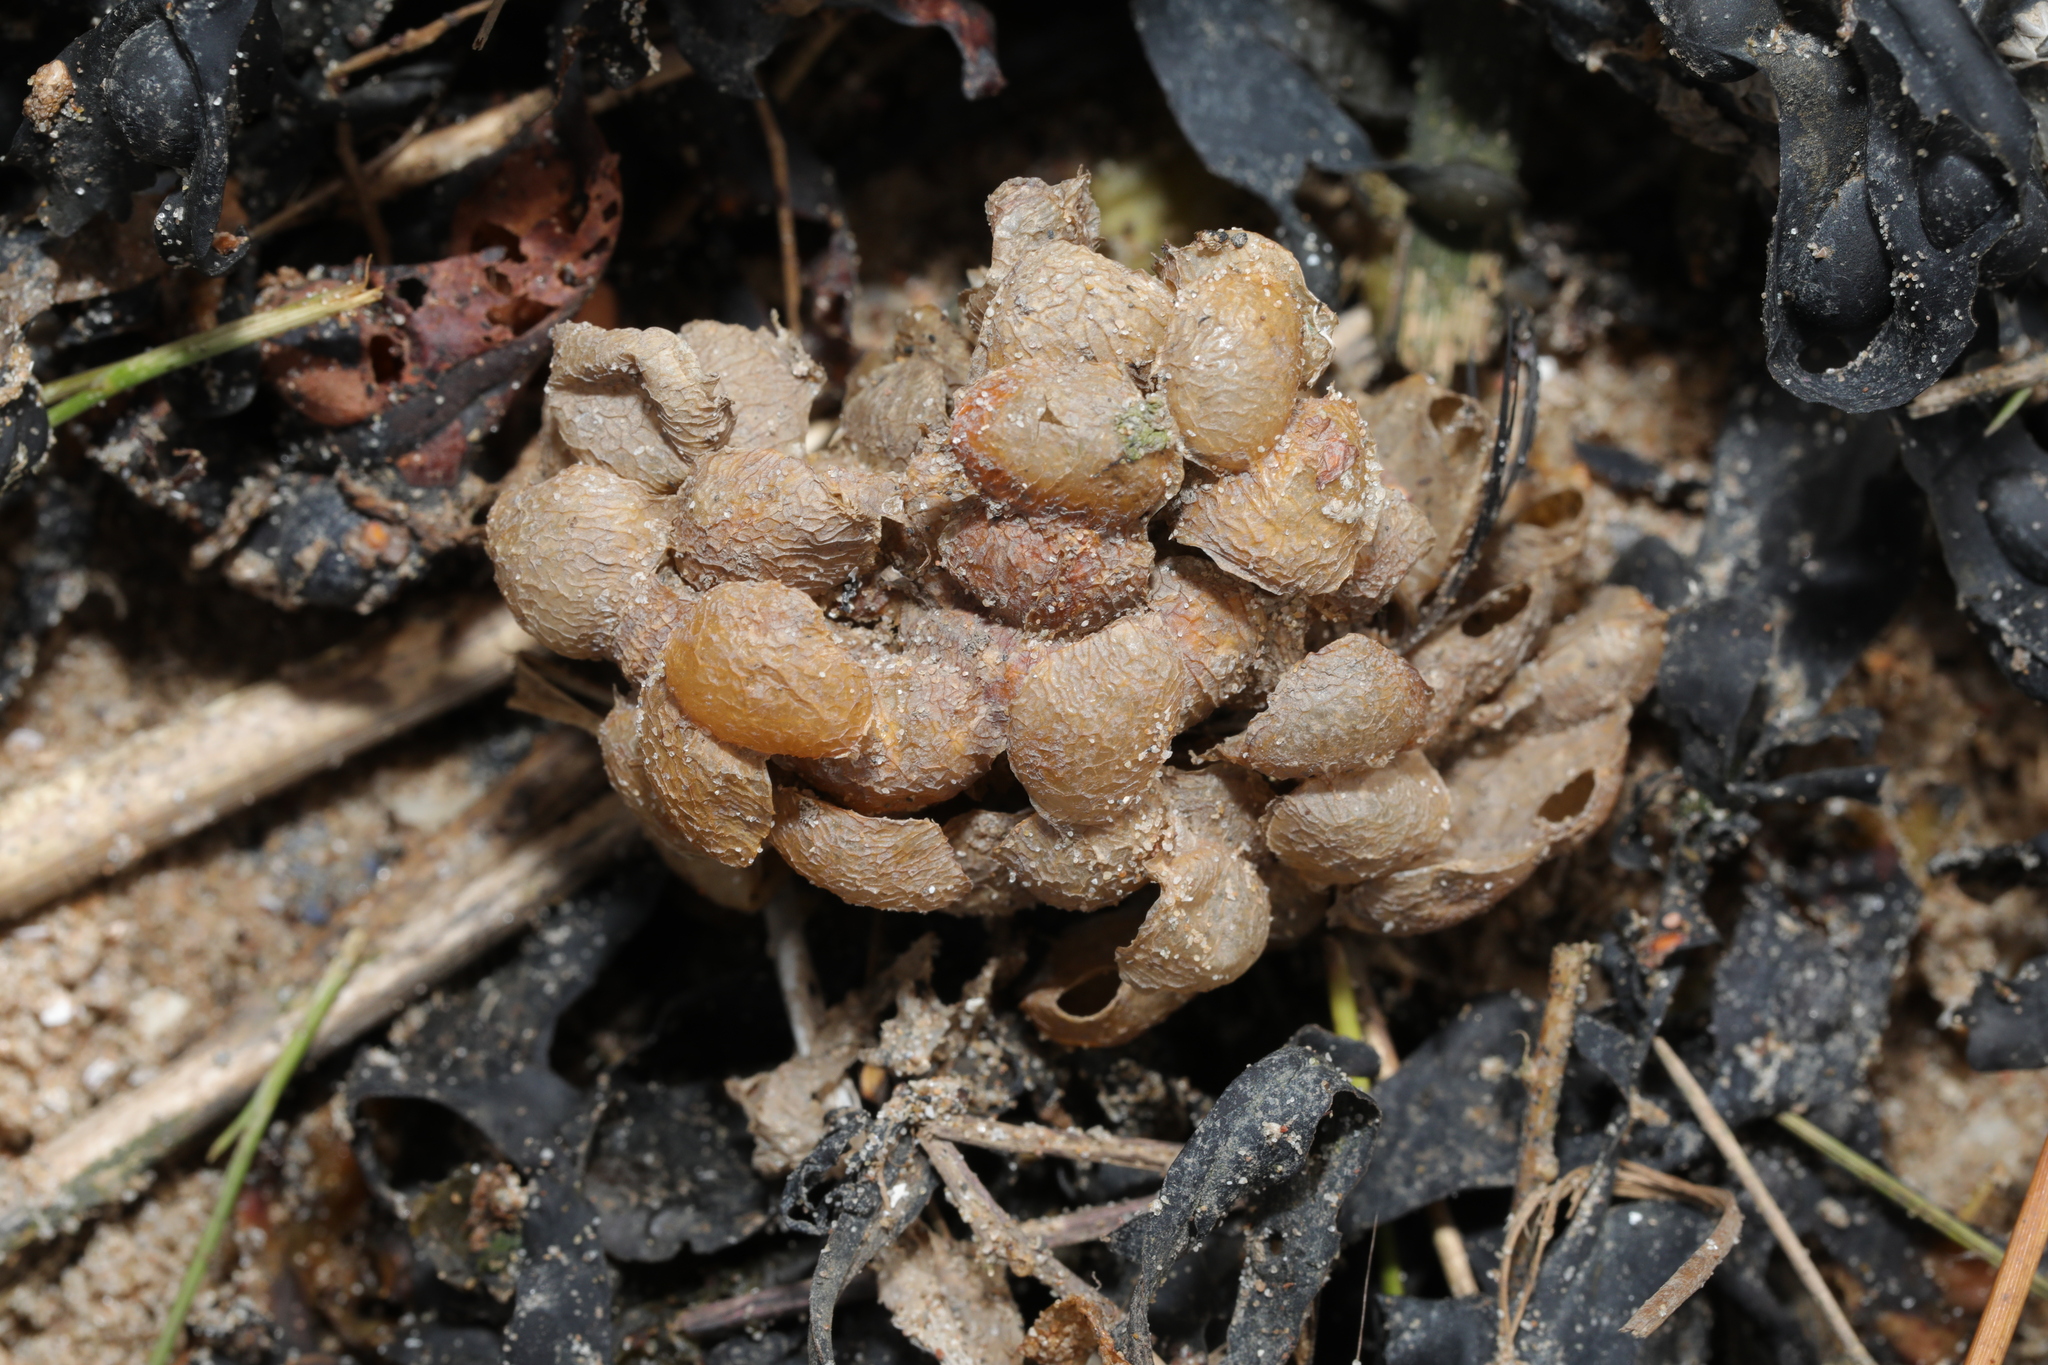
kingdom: Animalia
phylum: Mollusca
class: Gastropoda
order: Neogastropoda
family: Buccinidae
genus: Buccinum
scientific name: Buccinum undatum
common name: Common whelk
